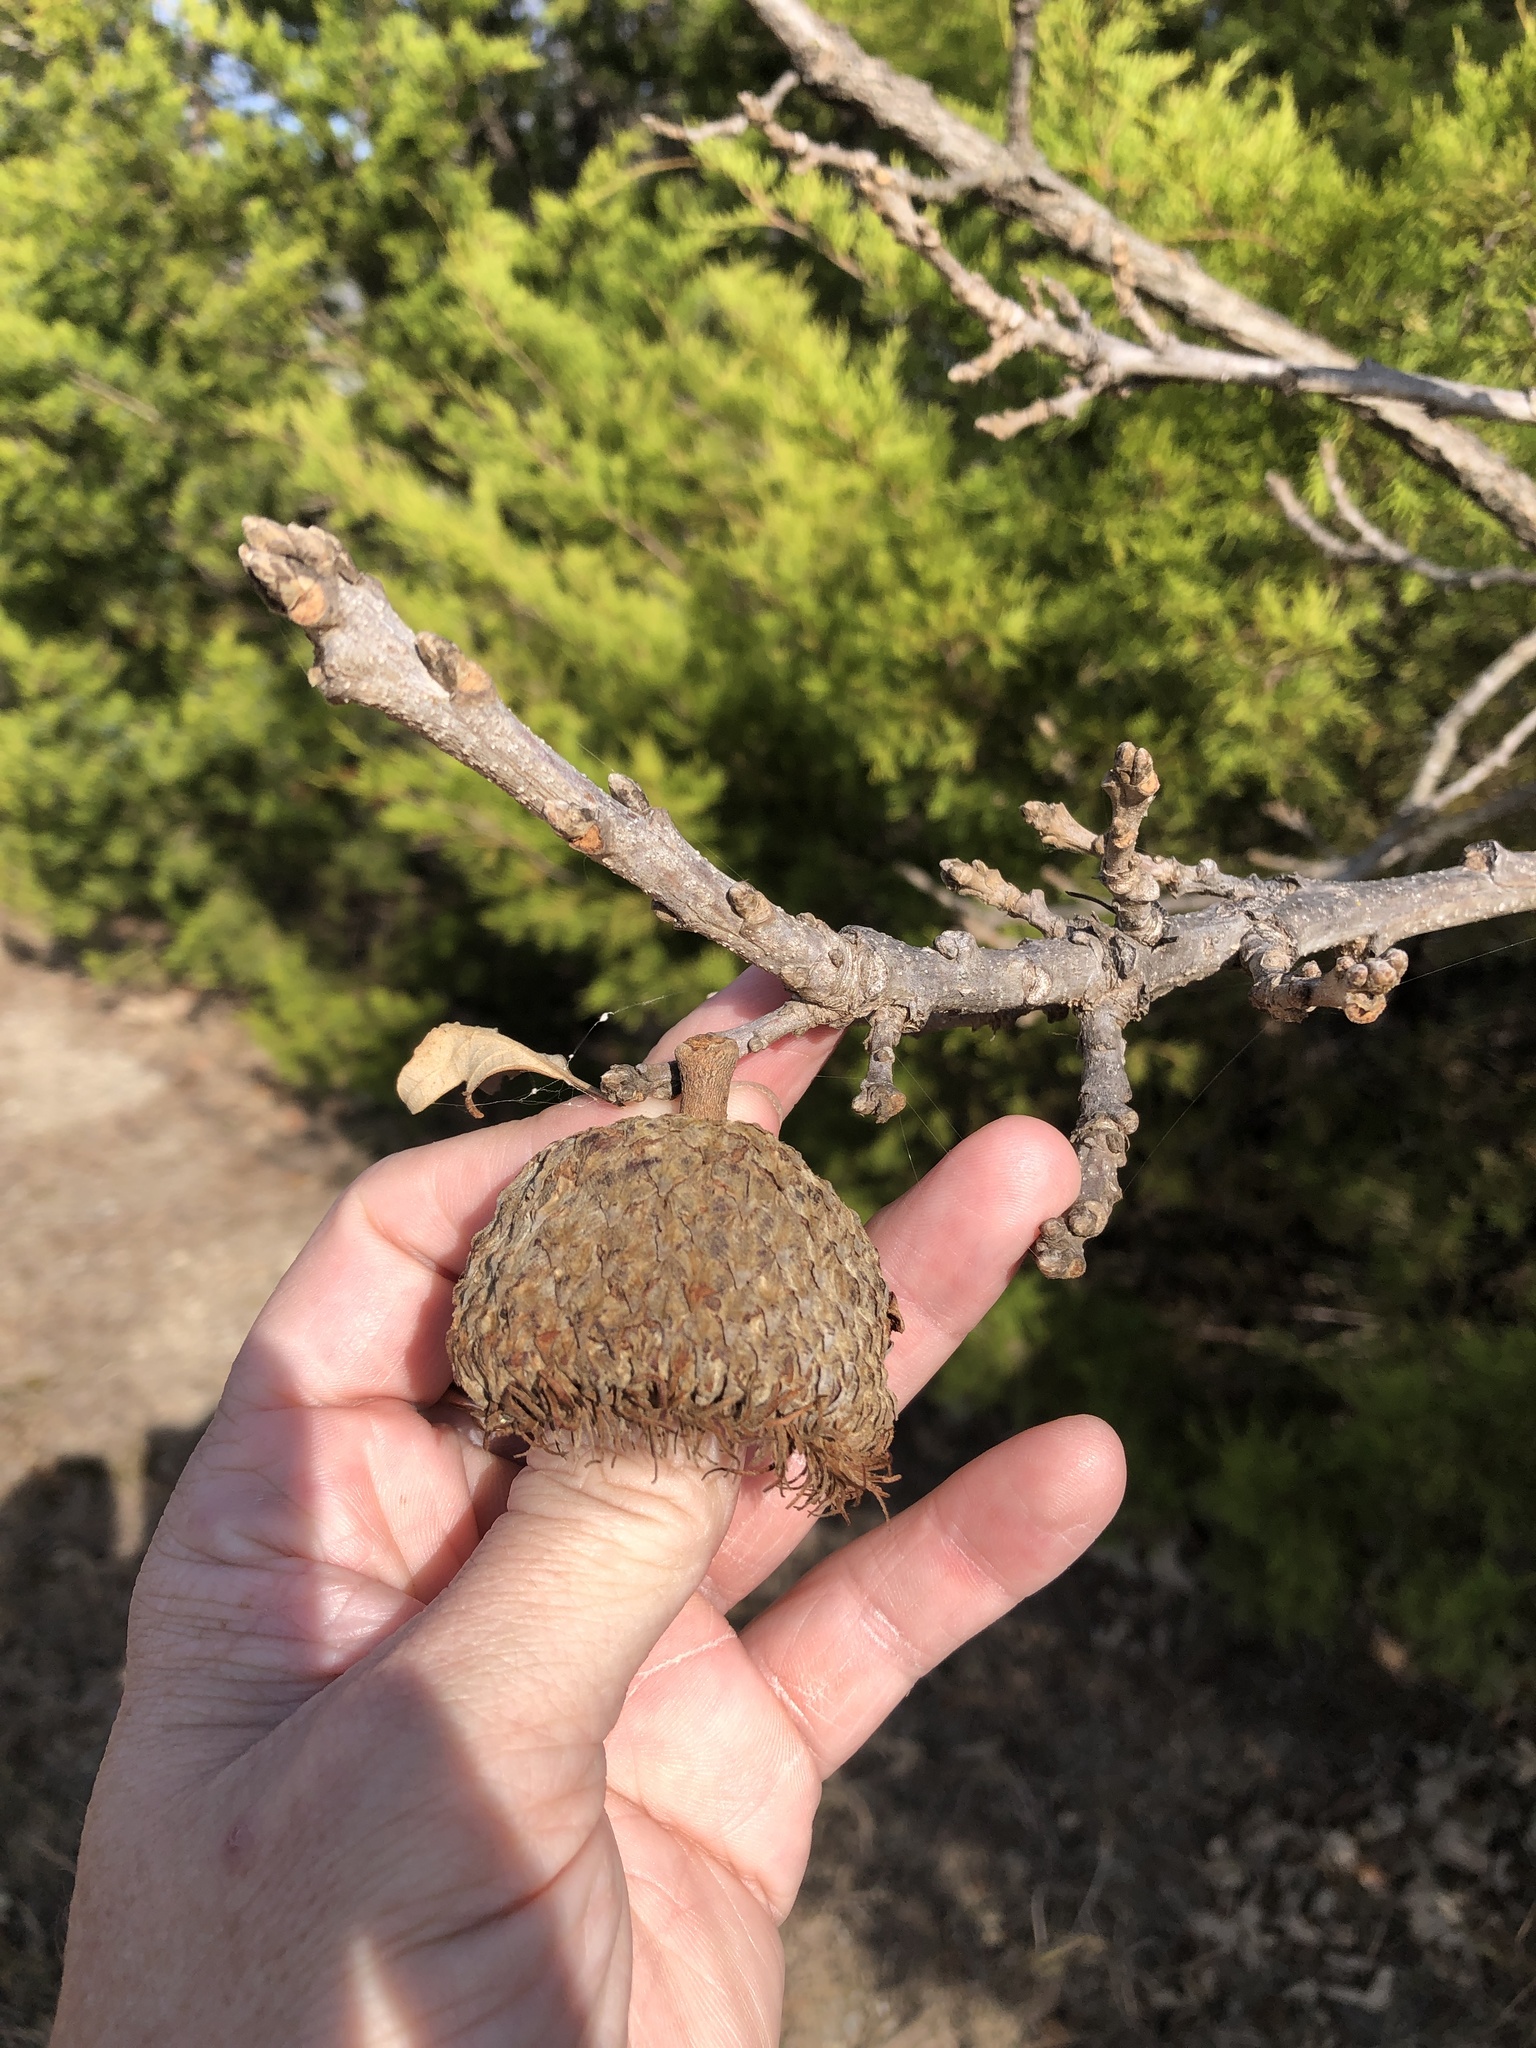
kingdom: Plantae
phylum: Tracheophyta
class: Magnoliopsida
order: Fagales
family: Fagaceae
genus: Quercus
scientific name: Quercus macrocarpa
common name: Bur oak
